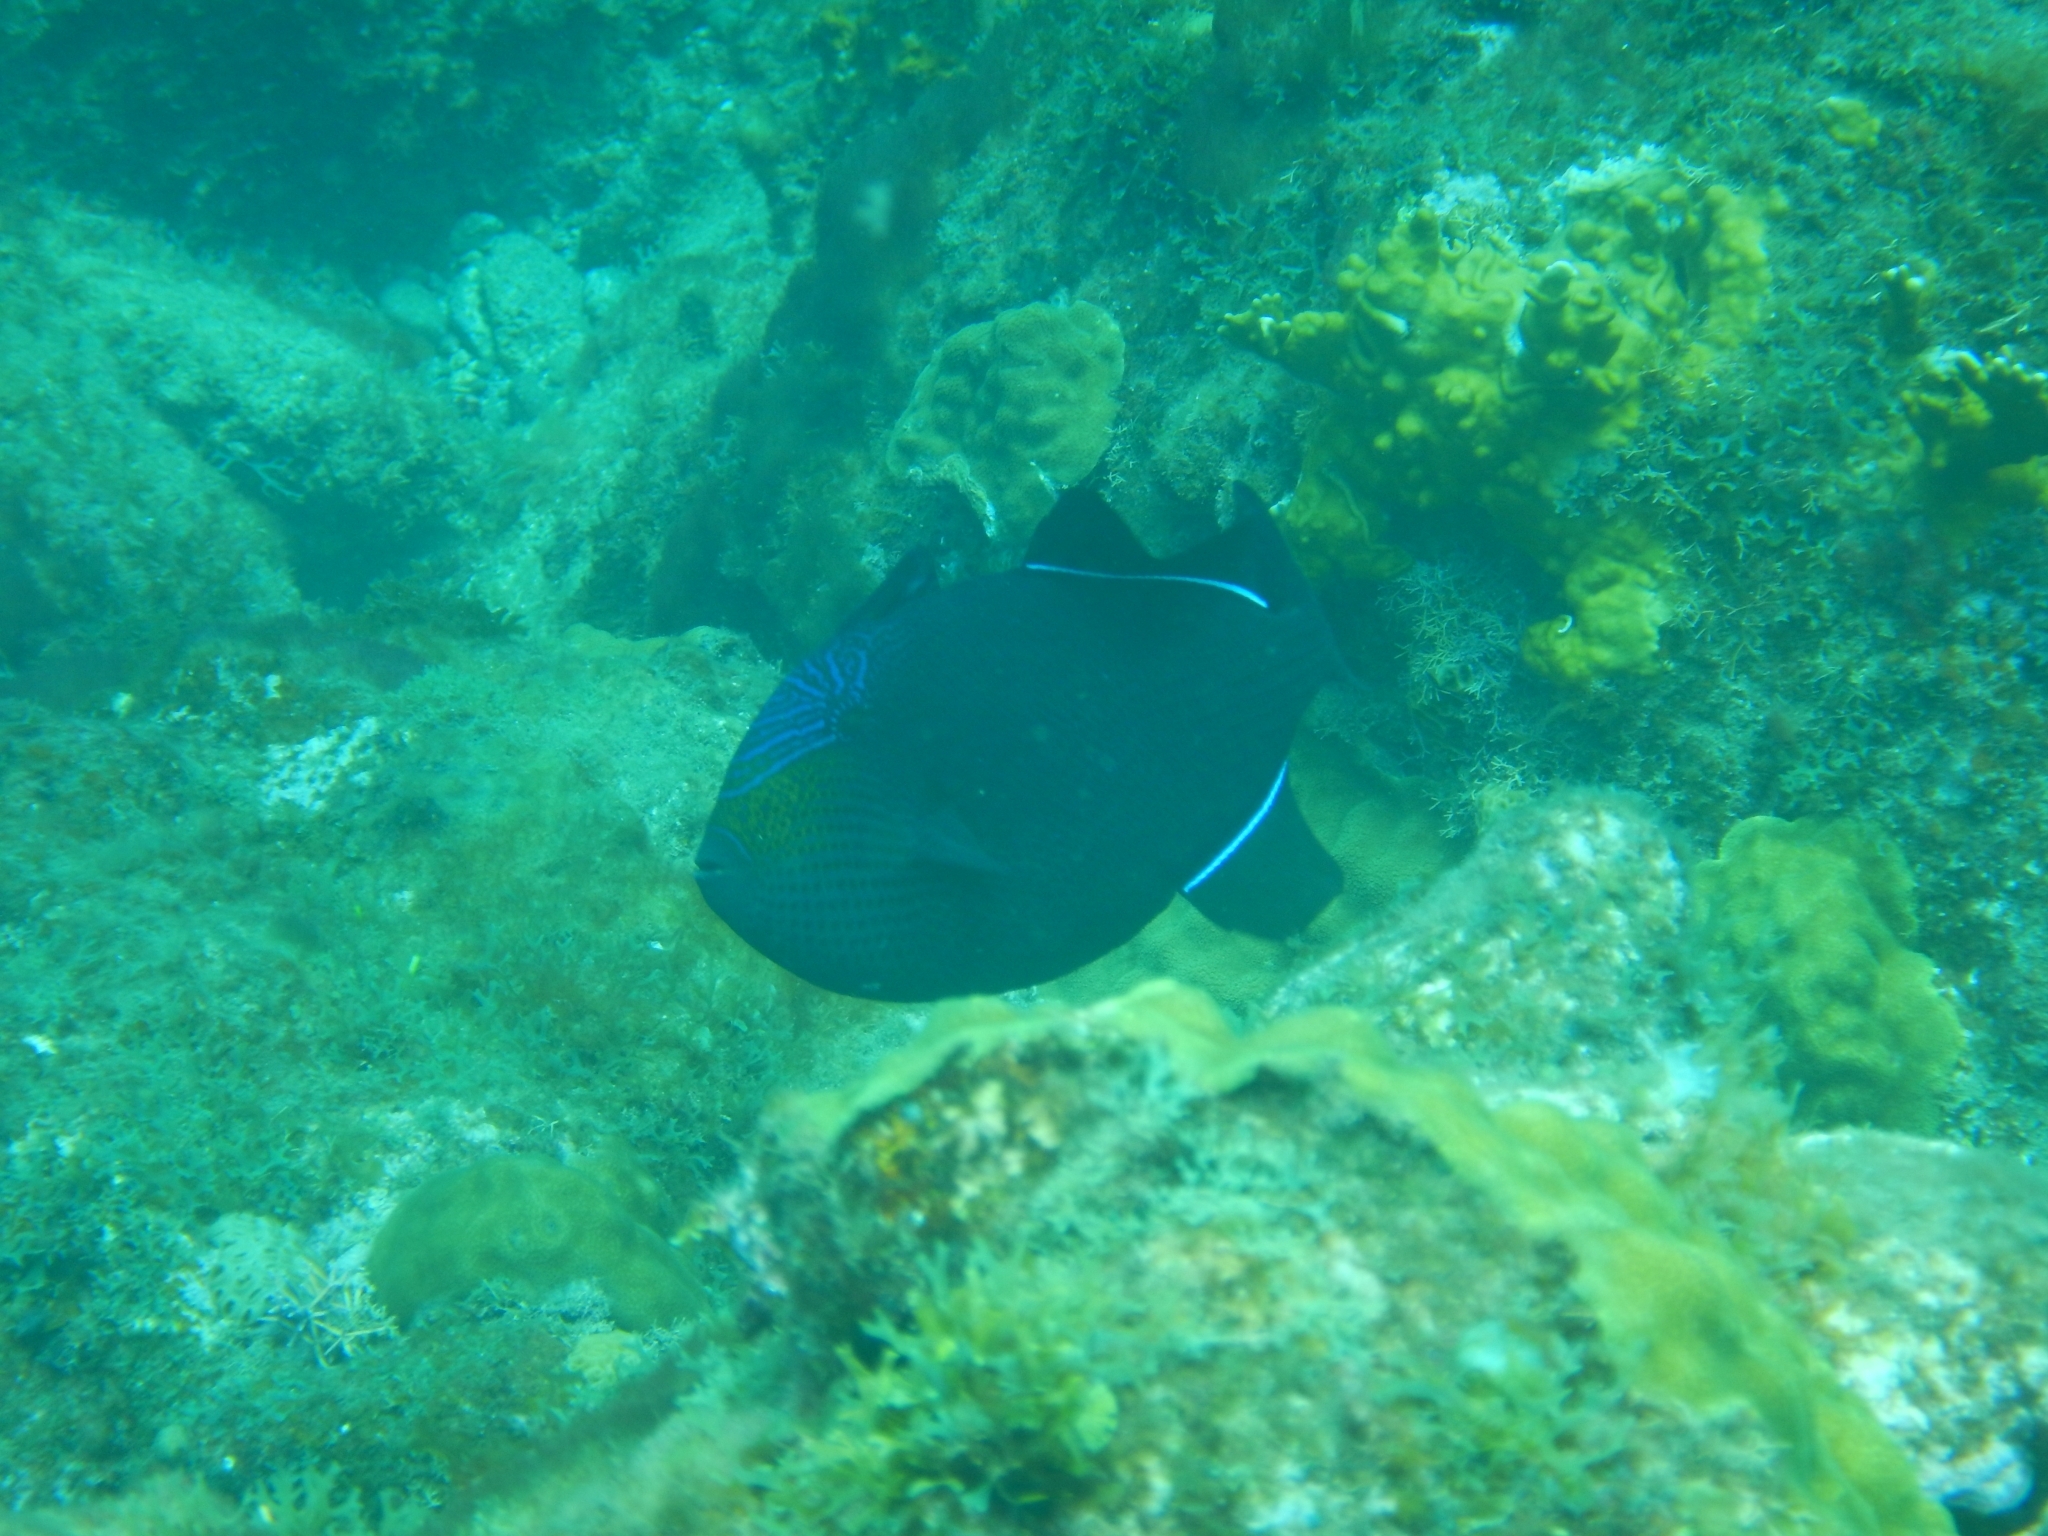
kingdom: Animalia
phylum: Chordata
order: Tetraodontiformes
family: Balistidae
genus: Melichthys
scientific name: Melichthys niger
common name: Black durgon
